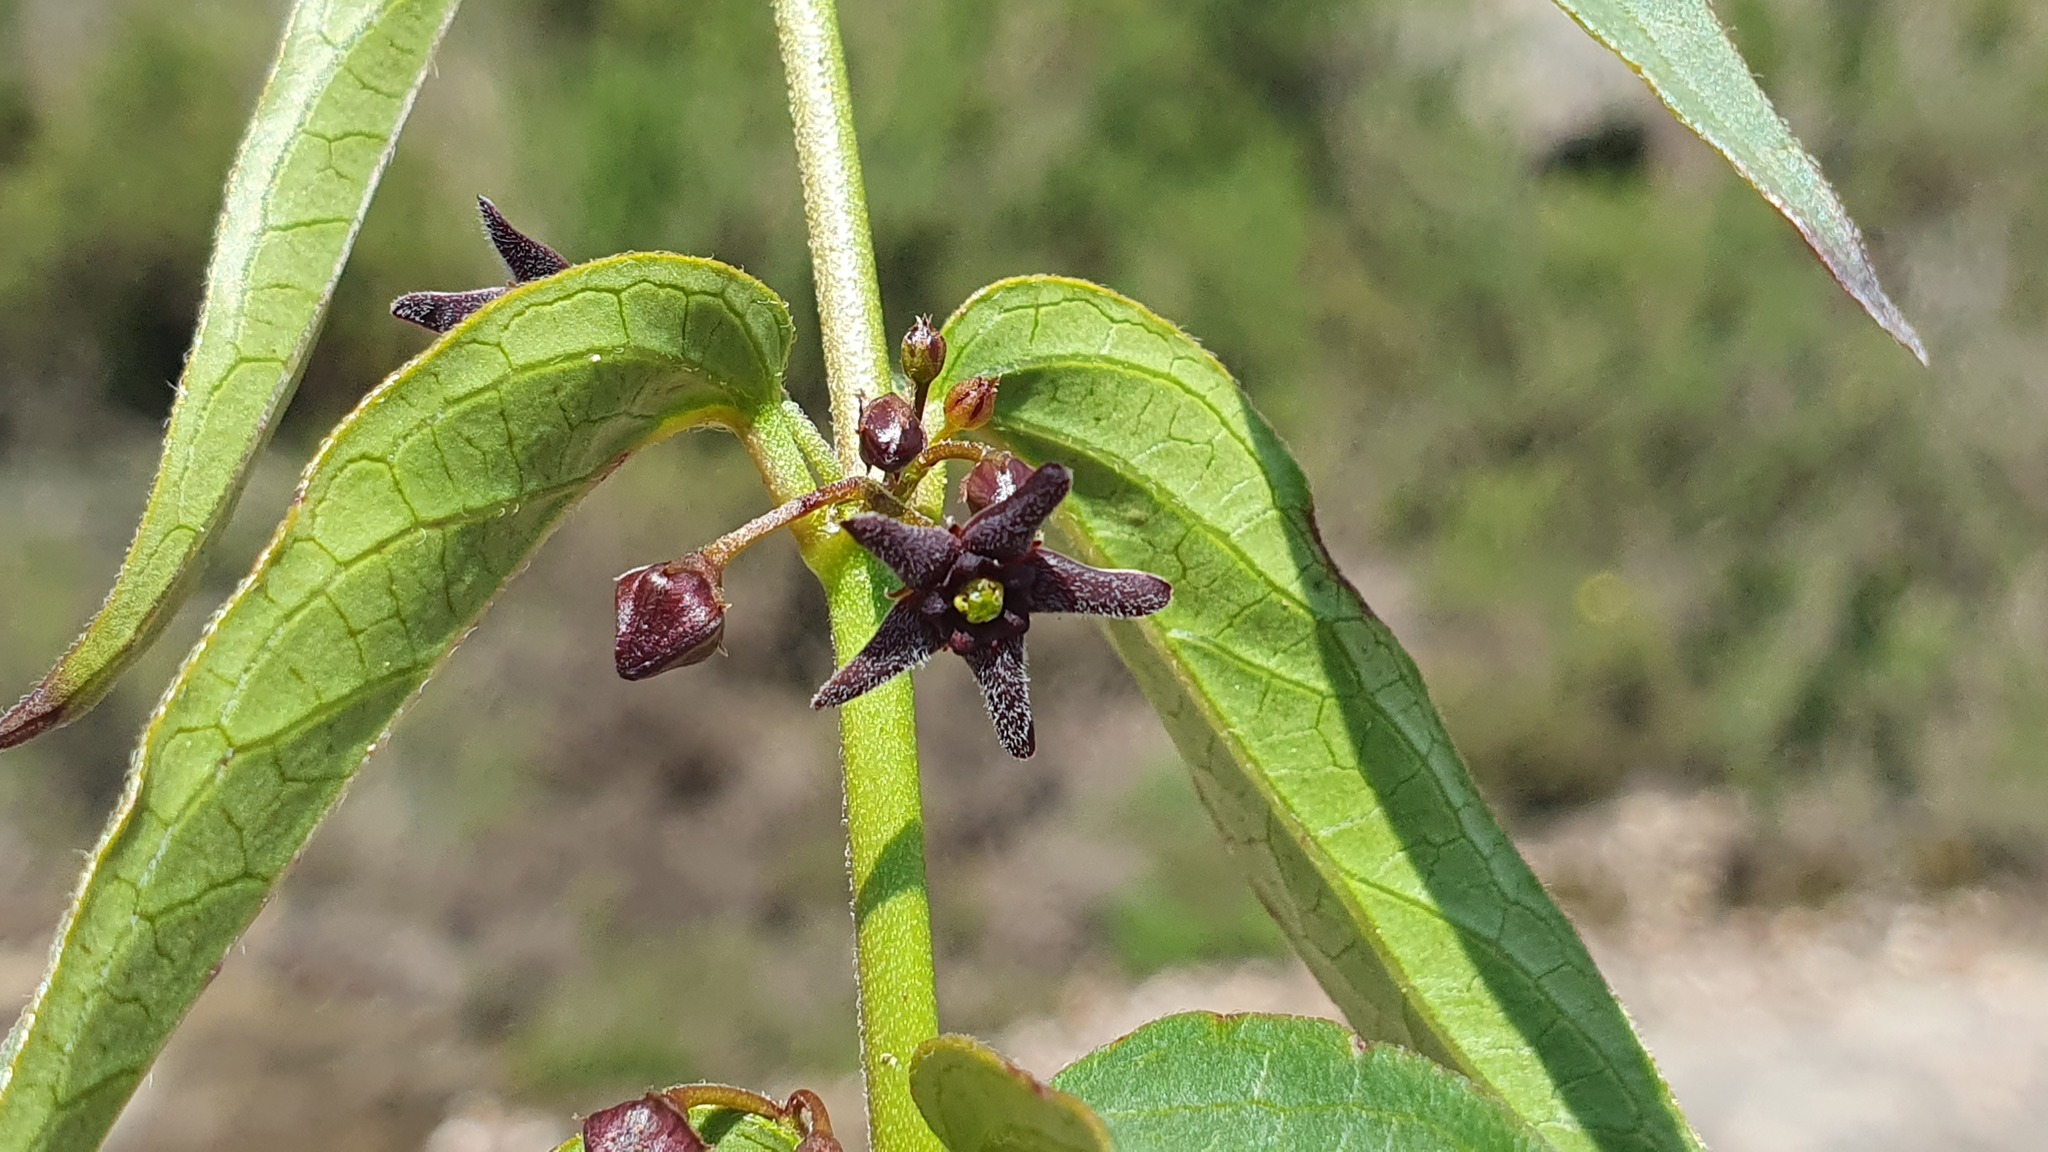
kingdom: Plantae
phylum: Tracheophyta
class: Magnoliopsida
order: Gentianales
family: Apocynaceae
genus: Vincetoxicum
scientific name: Vincetoxicum nigrum
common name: Black swallow-wort
